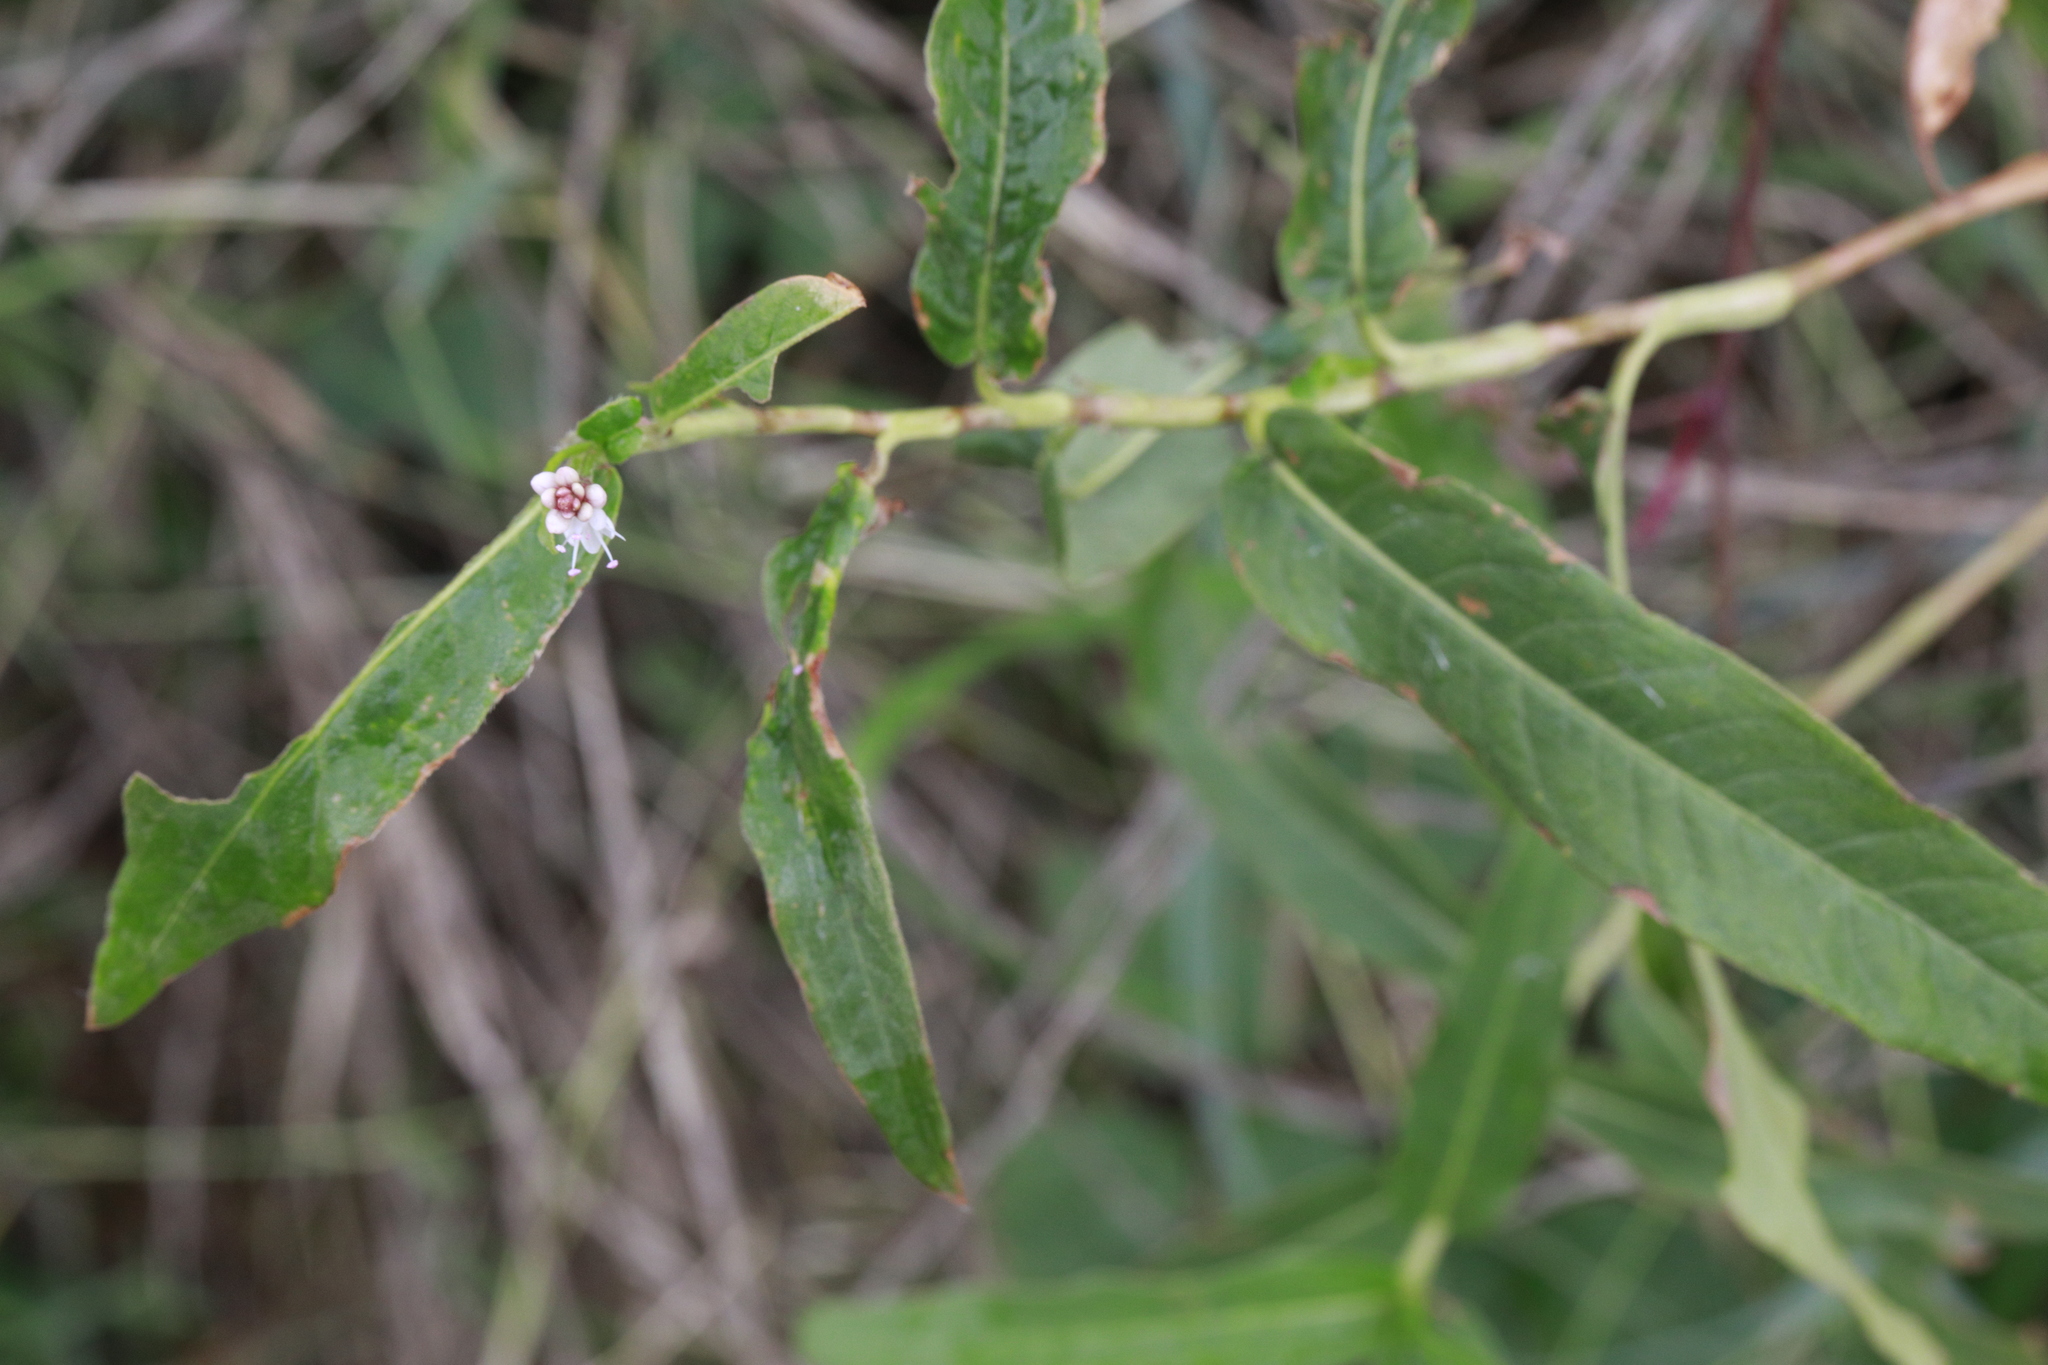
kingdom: Plantae
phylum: Tracheophyta
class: Magnoliopsida
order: Caryophyllales
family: Polygonaceae
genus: Persicaria
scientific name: Persicaria amphibia
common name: Amphibious bistort
